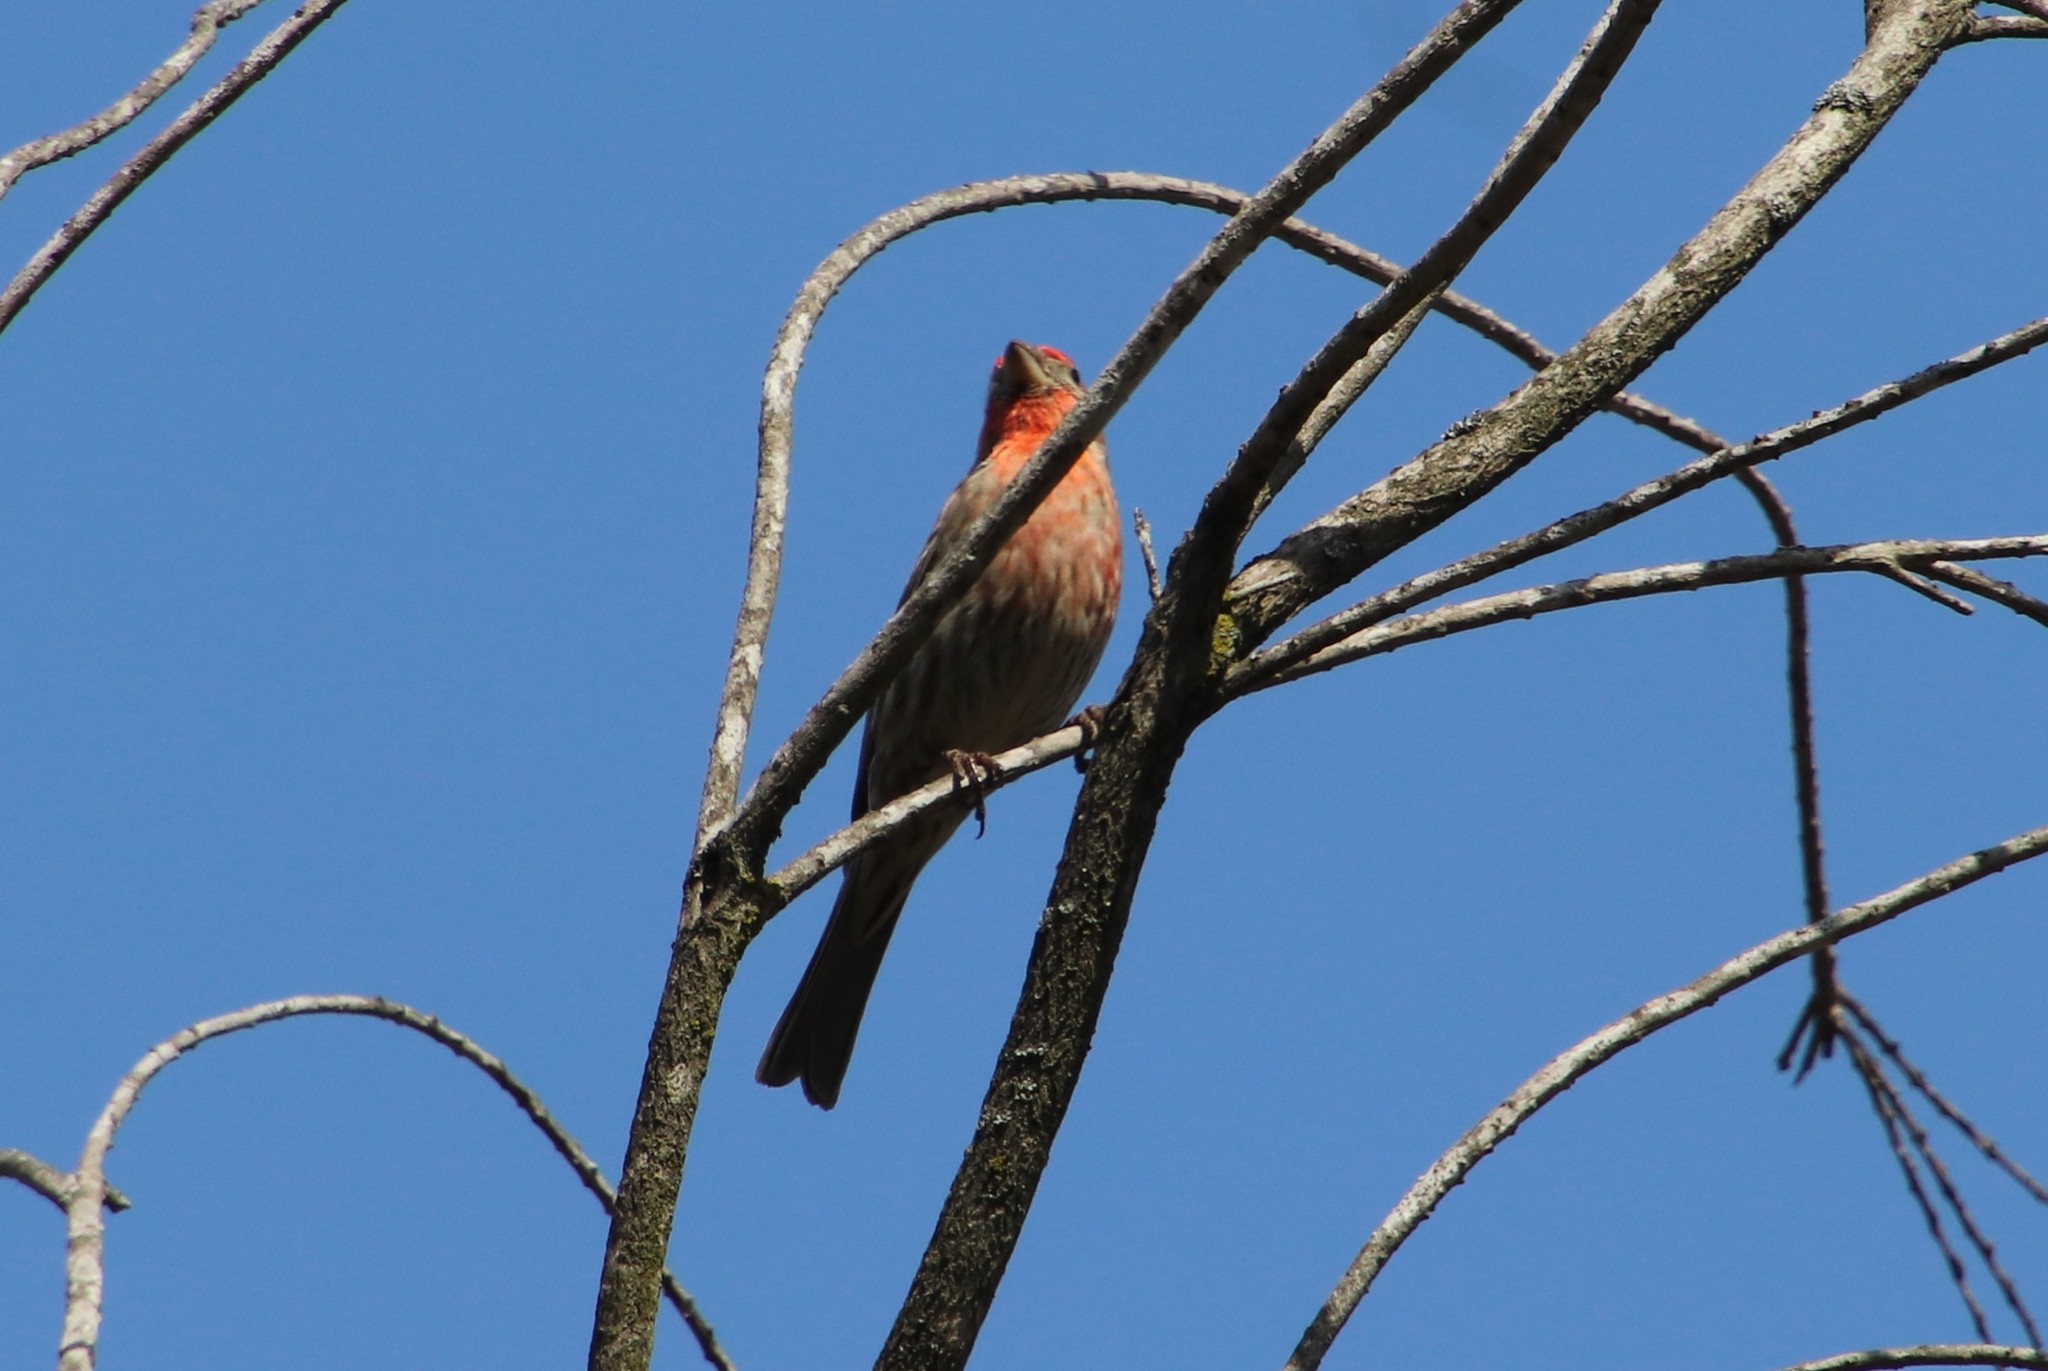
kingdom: Animalia
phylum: Chordata
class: Aves
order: Passeriformes
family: Fringillidae
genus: Haemorhous
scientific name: Haemorhous mexicanus
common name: House finch
